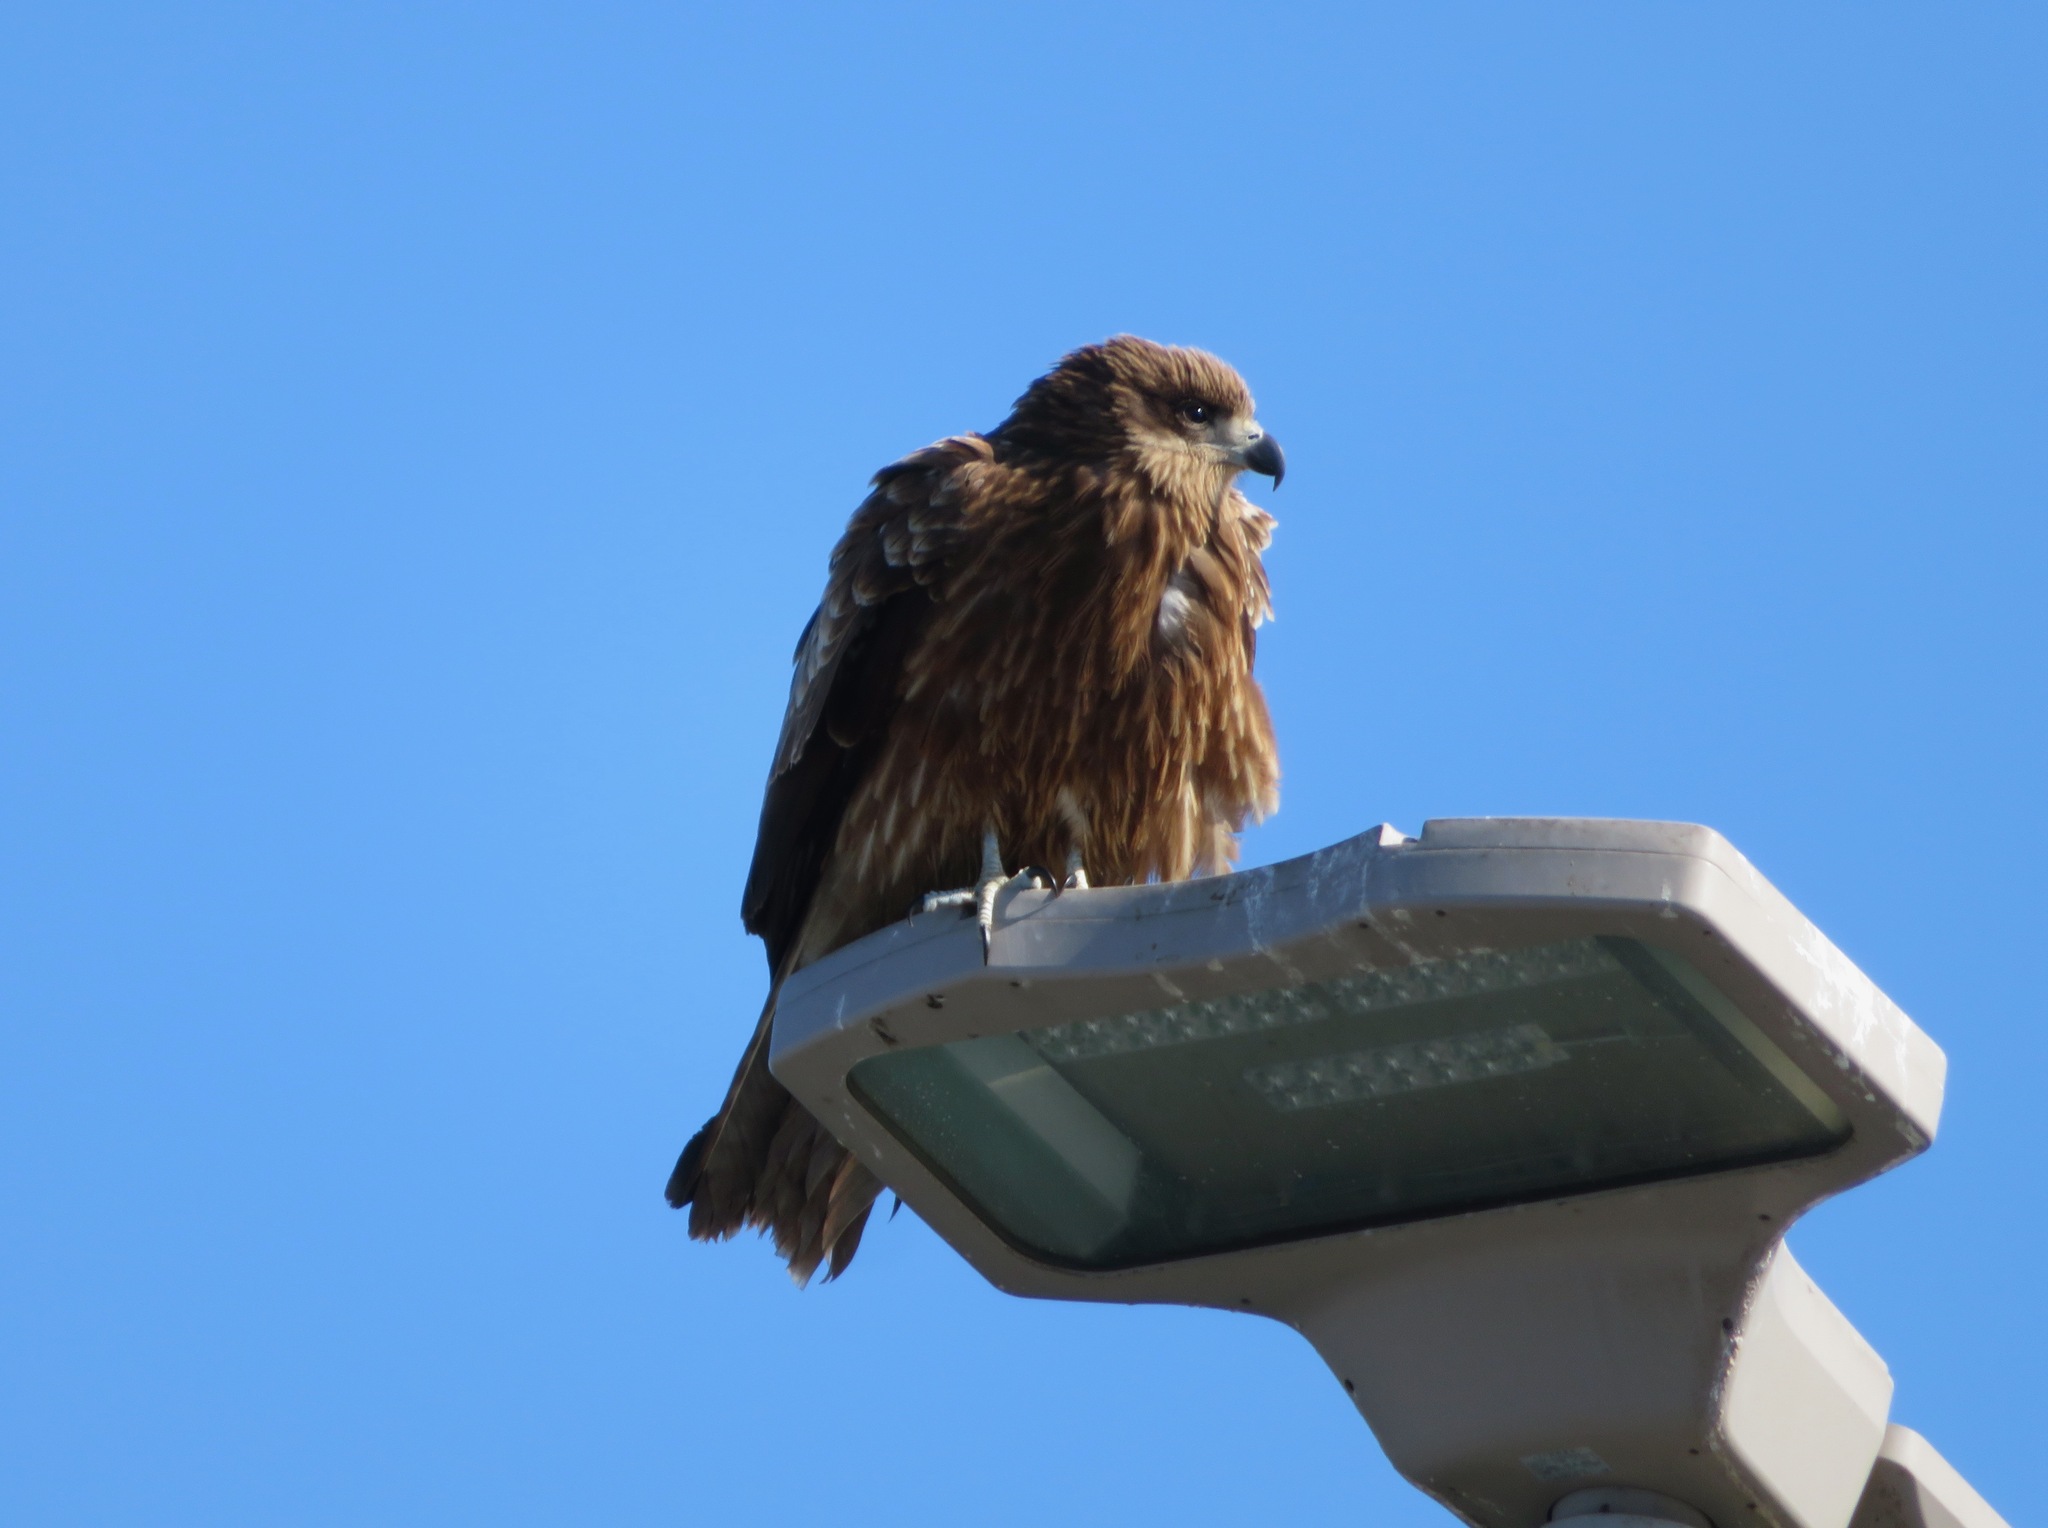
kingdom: Animalia
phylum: Chordata
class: Aves
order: Accipitriformes
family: Accipitridae
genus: Milvus
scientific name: Milvus migrans
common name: Black kite
